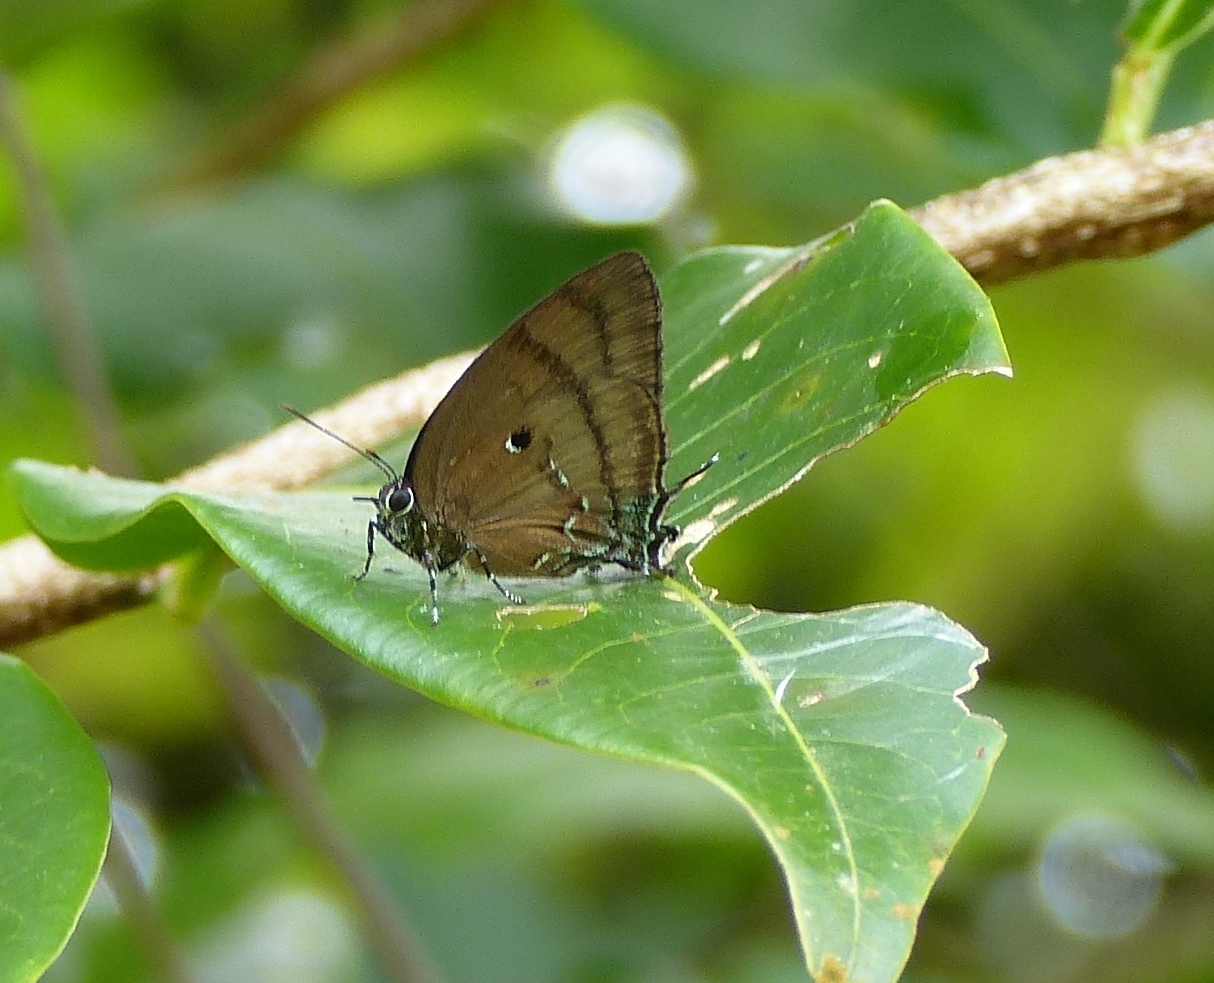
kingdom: Animalia
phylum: Arthropoda
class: Insecta
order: Lepidoptera
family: Lycaenidae
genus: Denivia
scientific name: Denivia hemon
